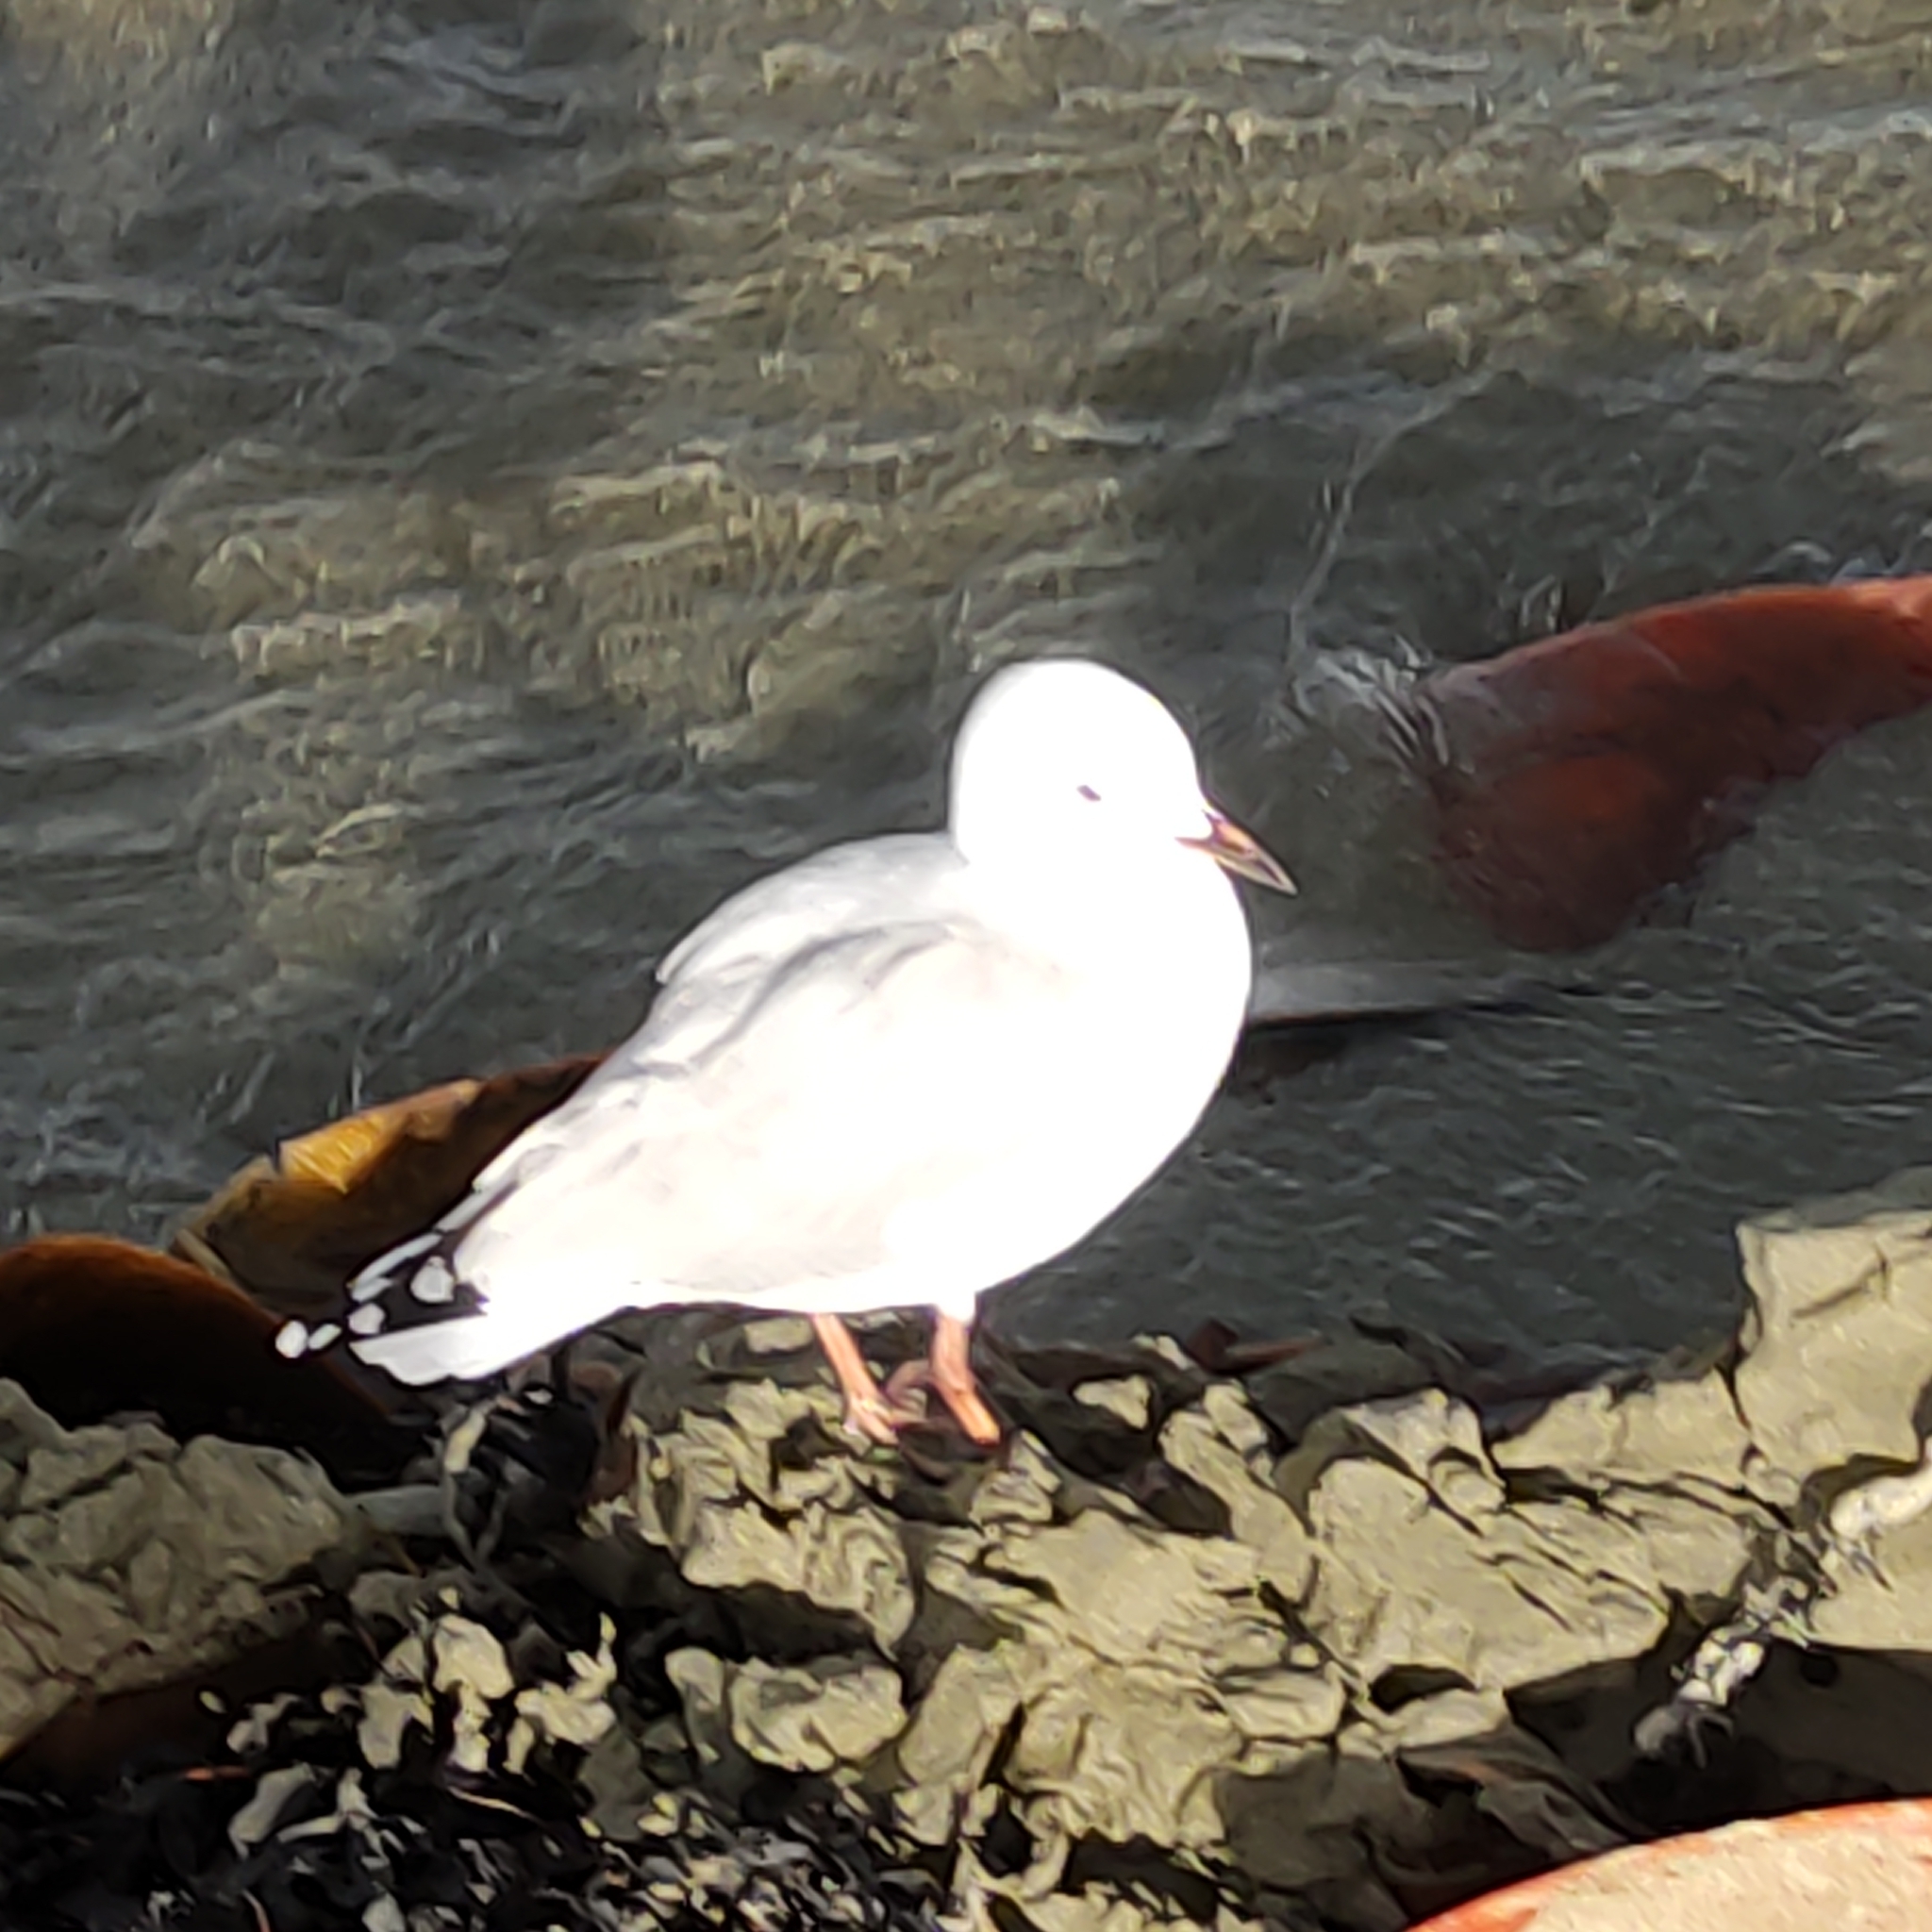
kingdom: Animalia
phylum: Chordata
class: Aves
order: Charadriiformes
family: Laridae
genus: Chroicocephalus
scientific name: Chroicocephalus novaehollandiae
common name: Silver gull
